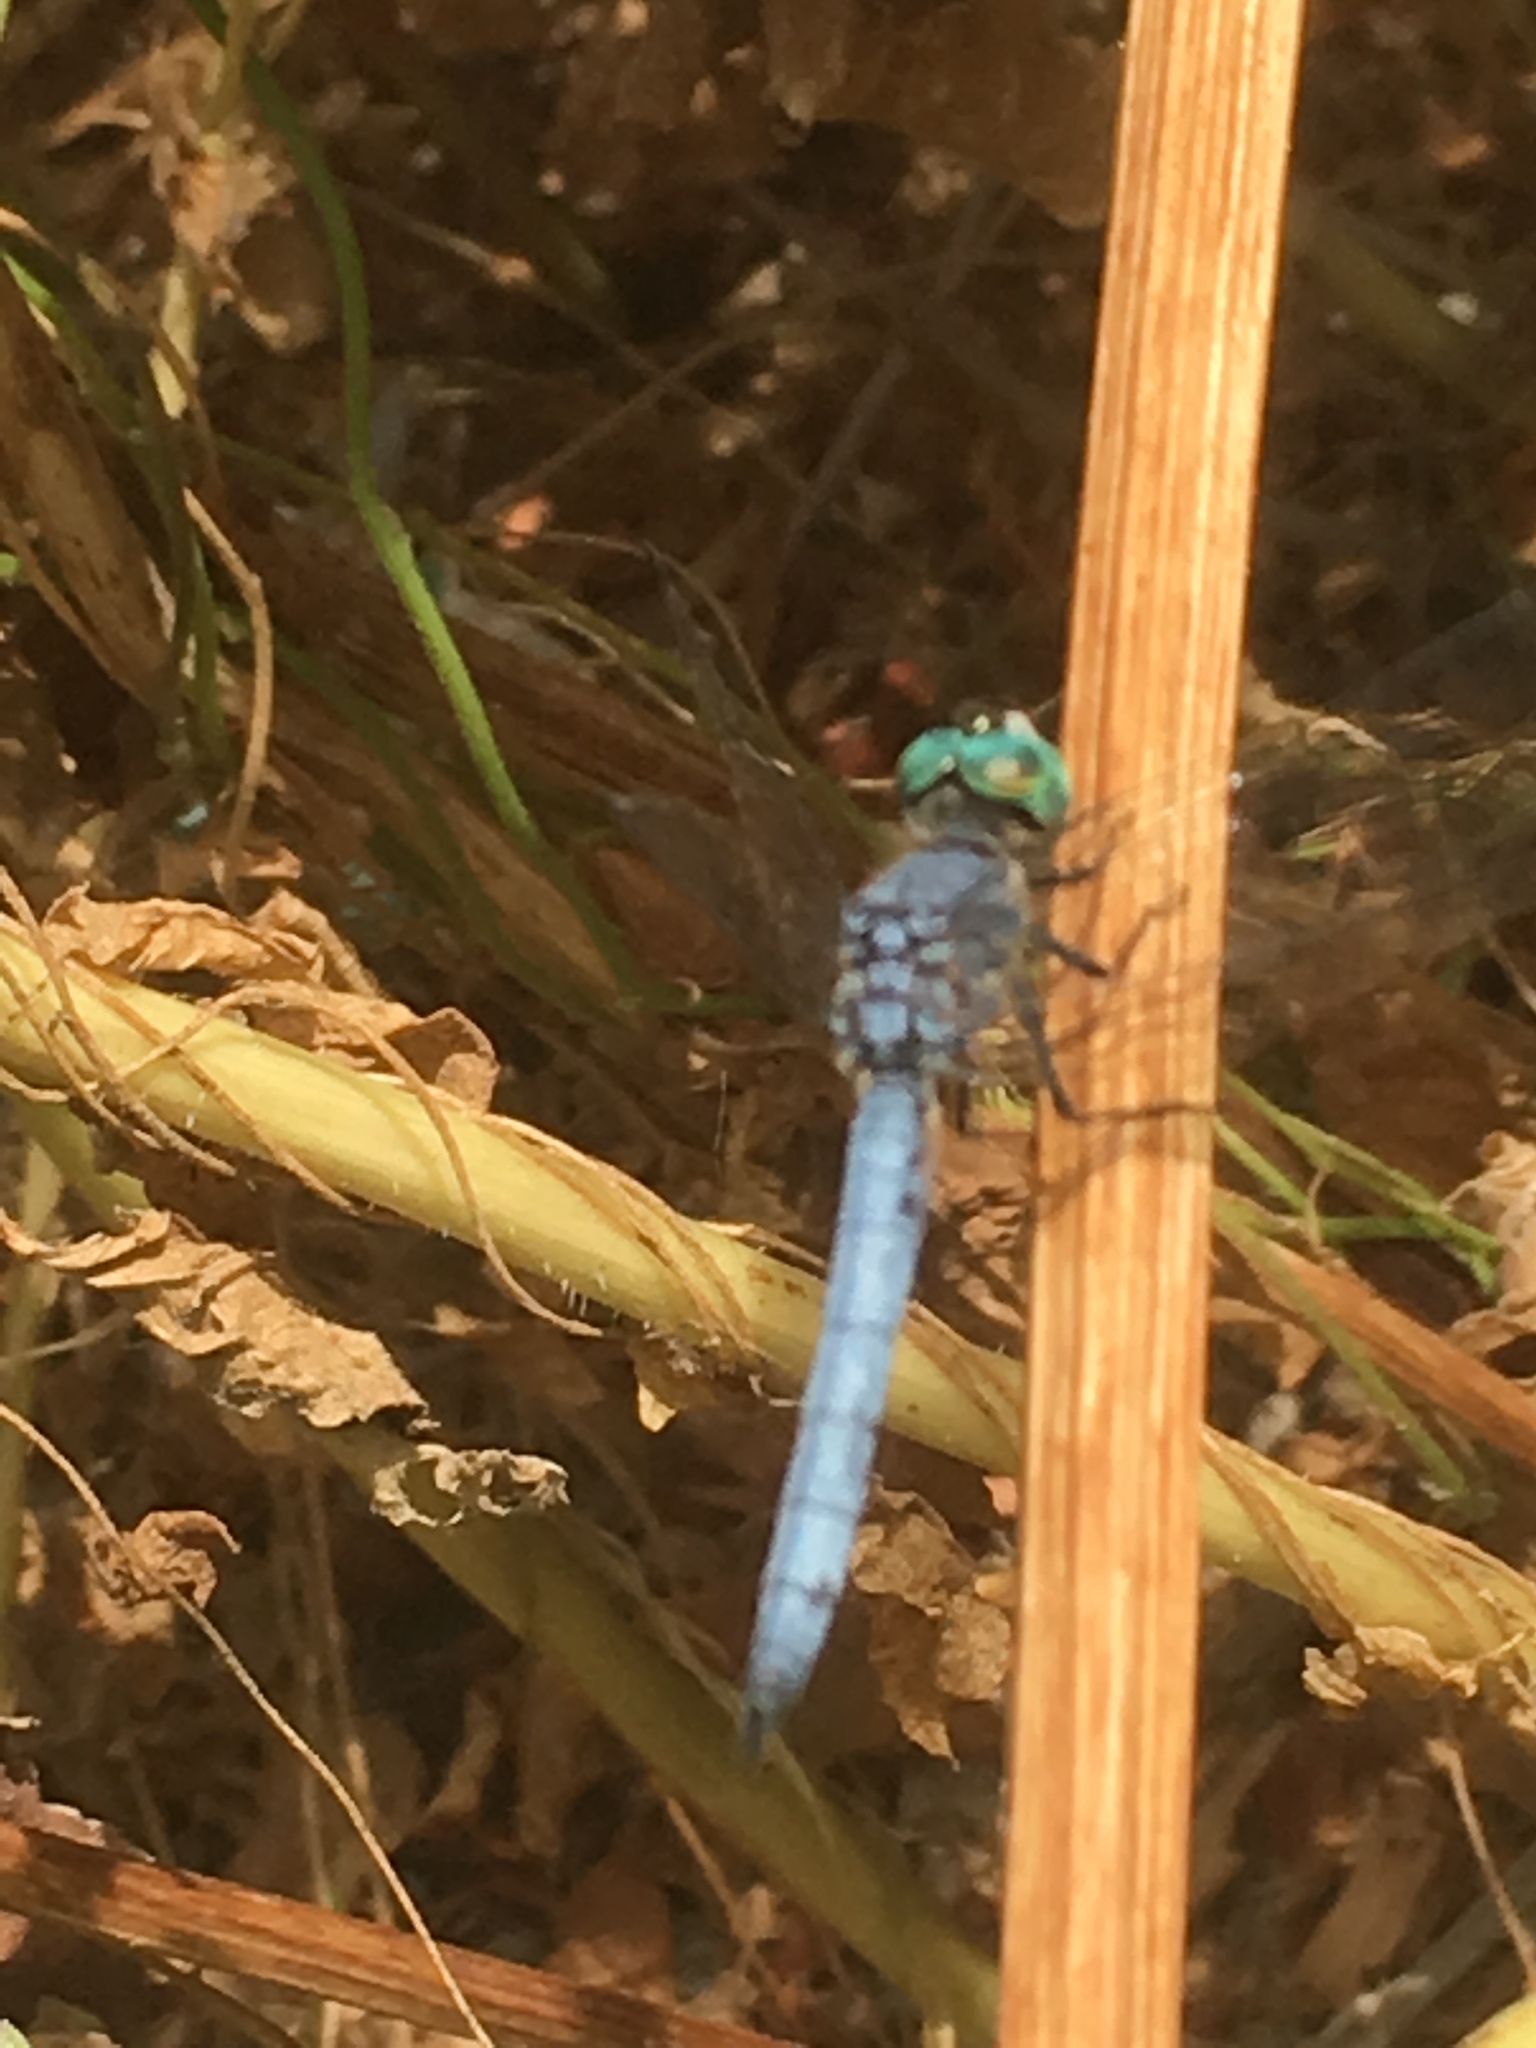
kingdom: Animalia
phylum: Arthropoda
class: Insecta
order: Odonata
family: Libellulidae
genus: Pachydiplax
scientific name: Pachydiplax longipennis
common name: Blue dasher
